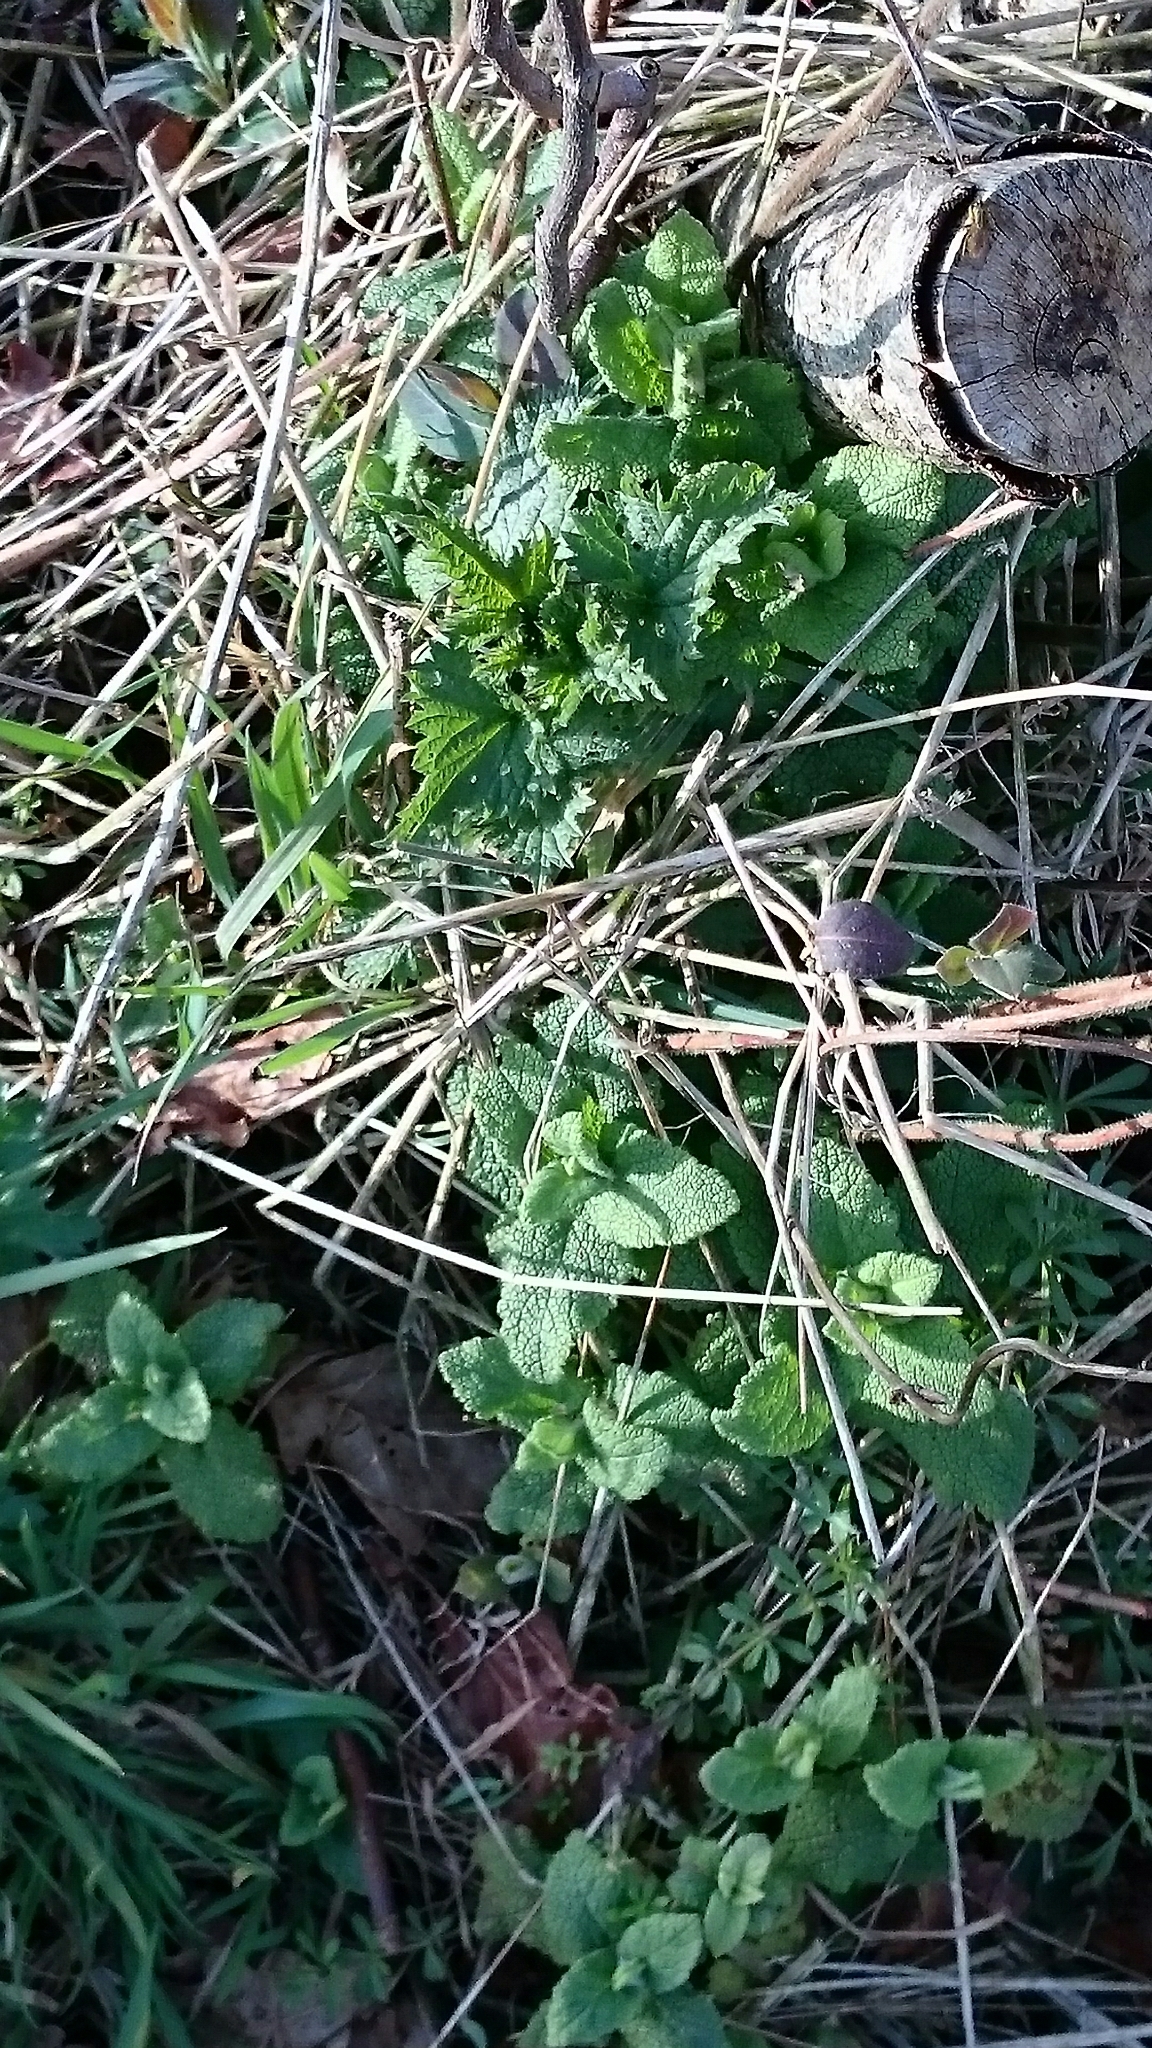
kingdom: Plantae
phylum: Tracheophyta
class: Magnoliopsida
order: Lamiales
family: Lamiaceae
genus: Teucrium
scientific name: Teucrium scorodonia
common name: Woodland germander
